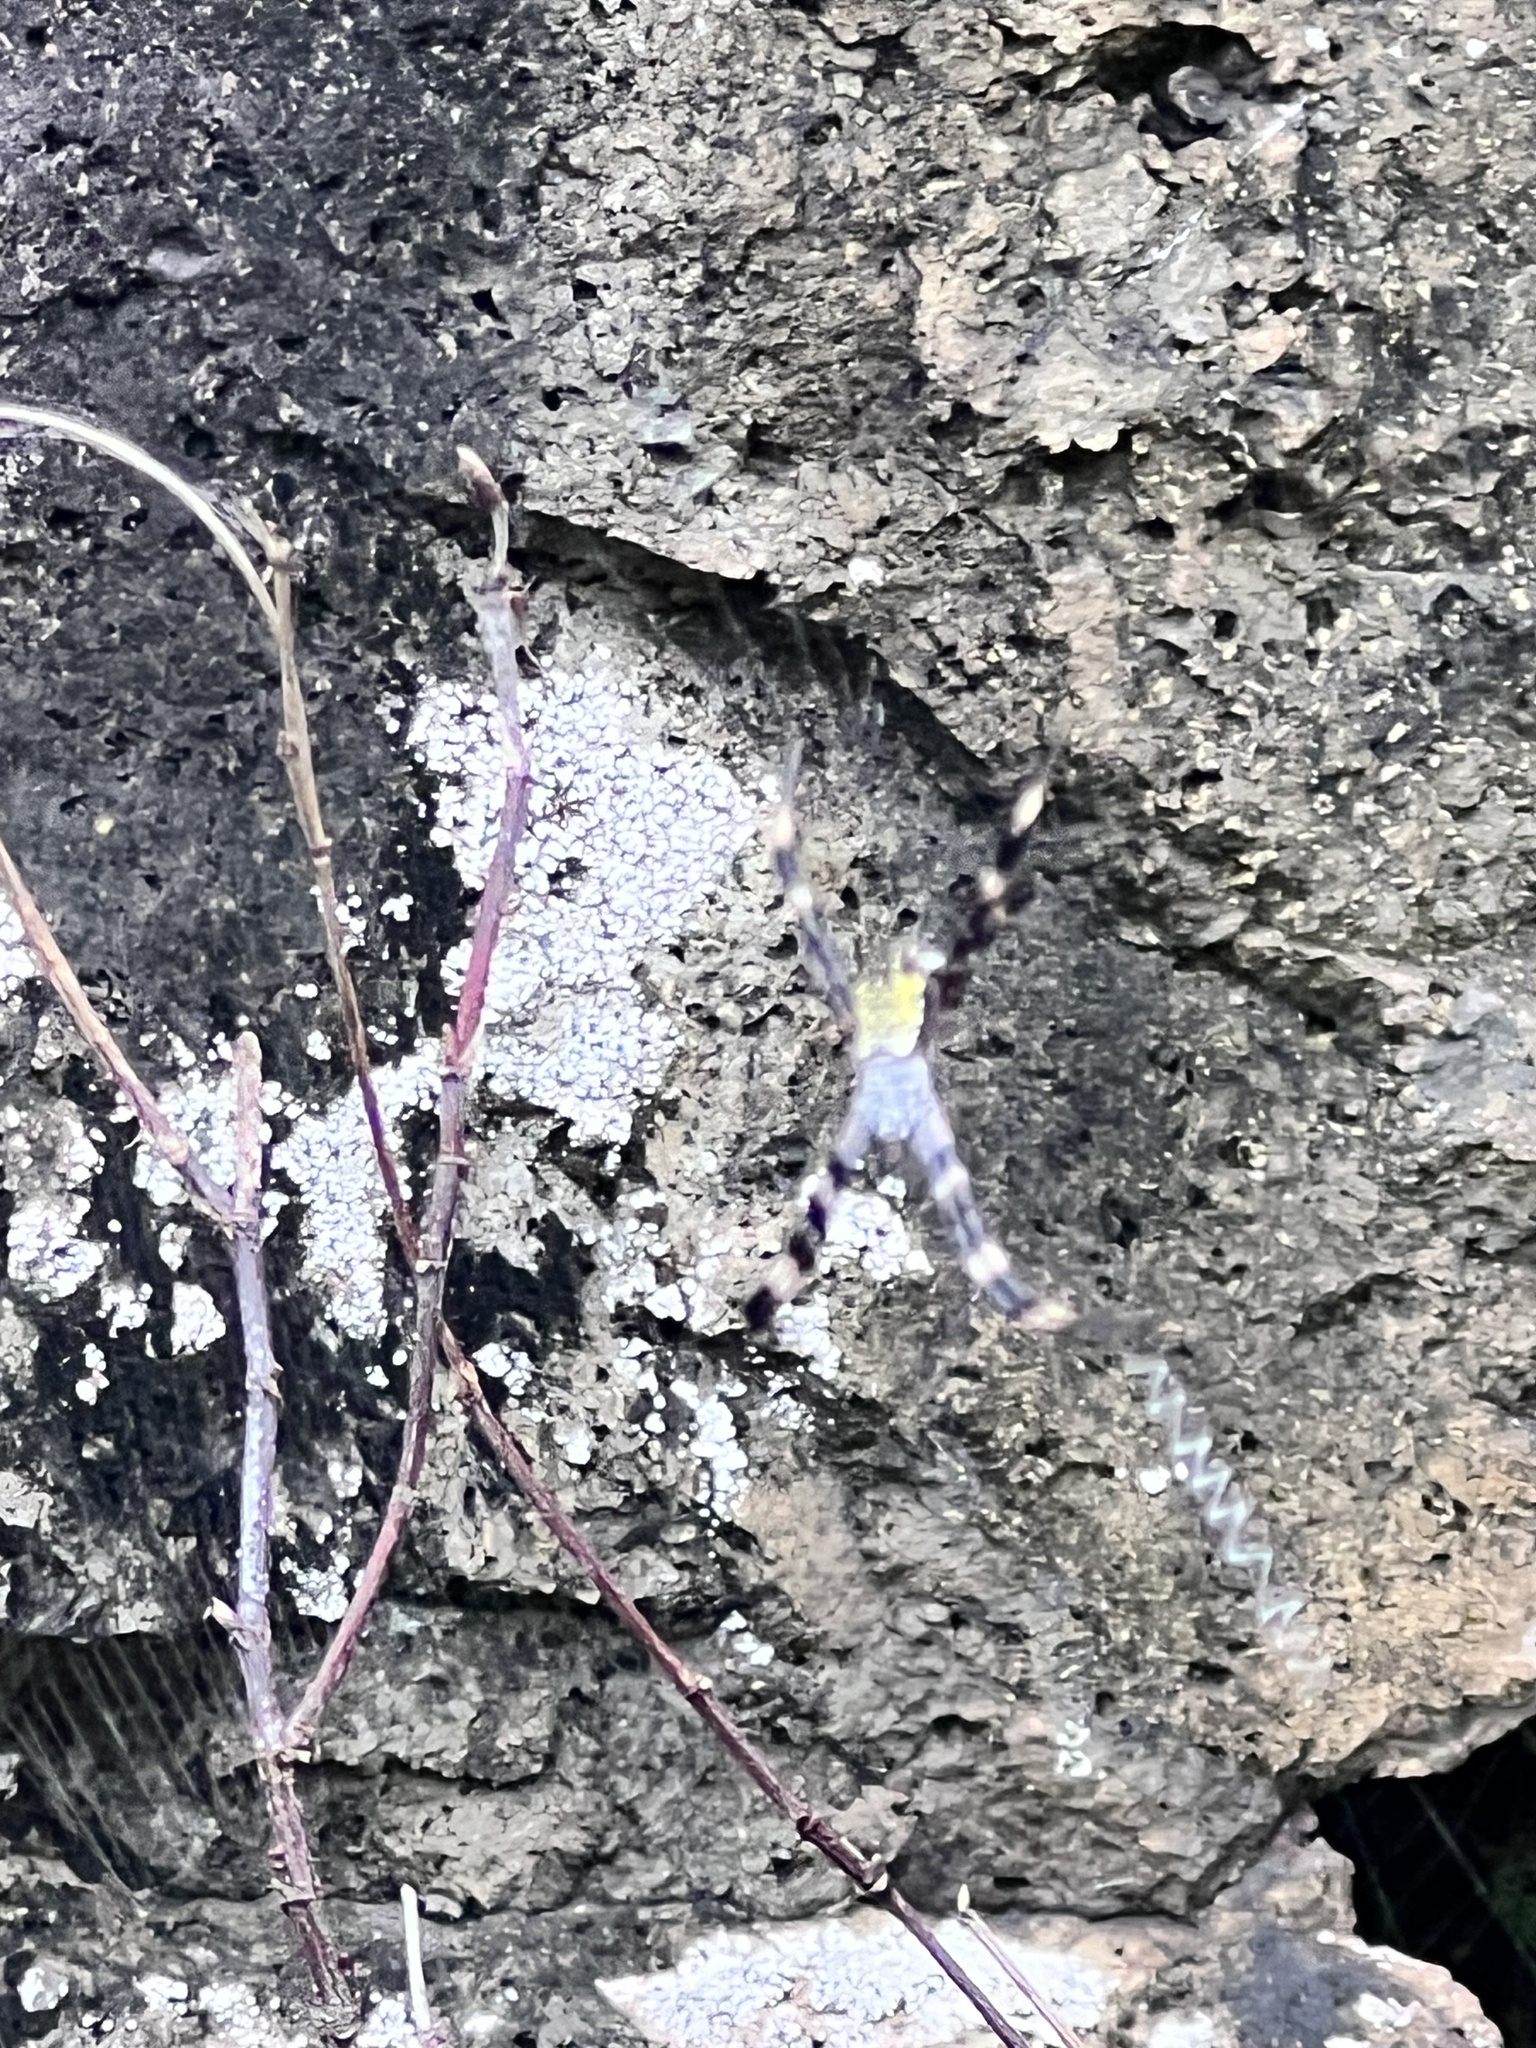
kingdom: Animalia
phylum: Arthropoda
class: Arachnida
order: Araneae
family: Araneidae
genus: Argiope
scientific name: Argiope appensa
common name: Garden spider
